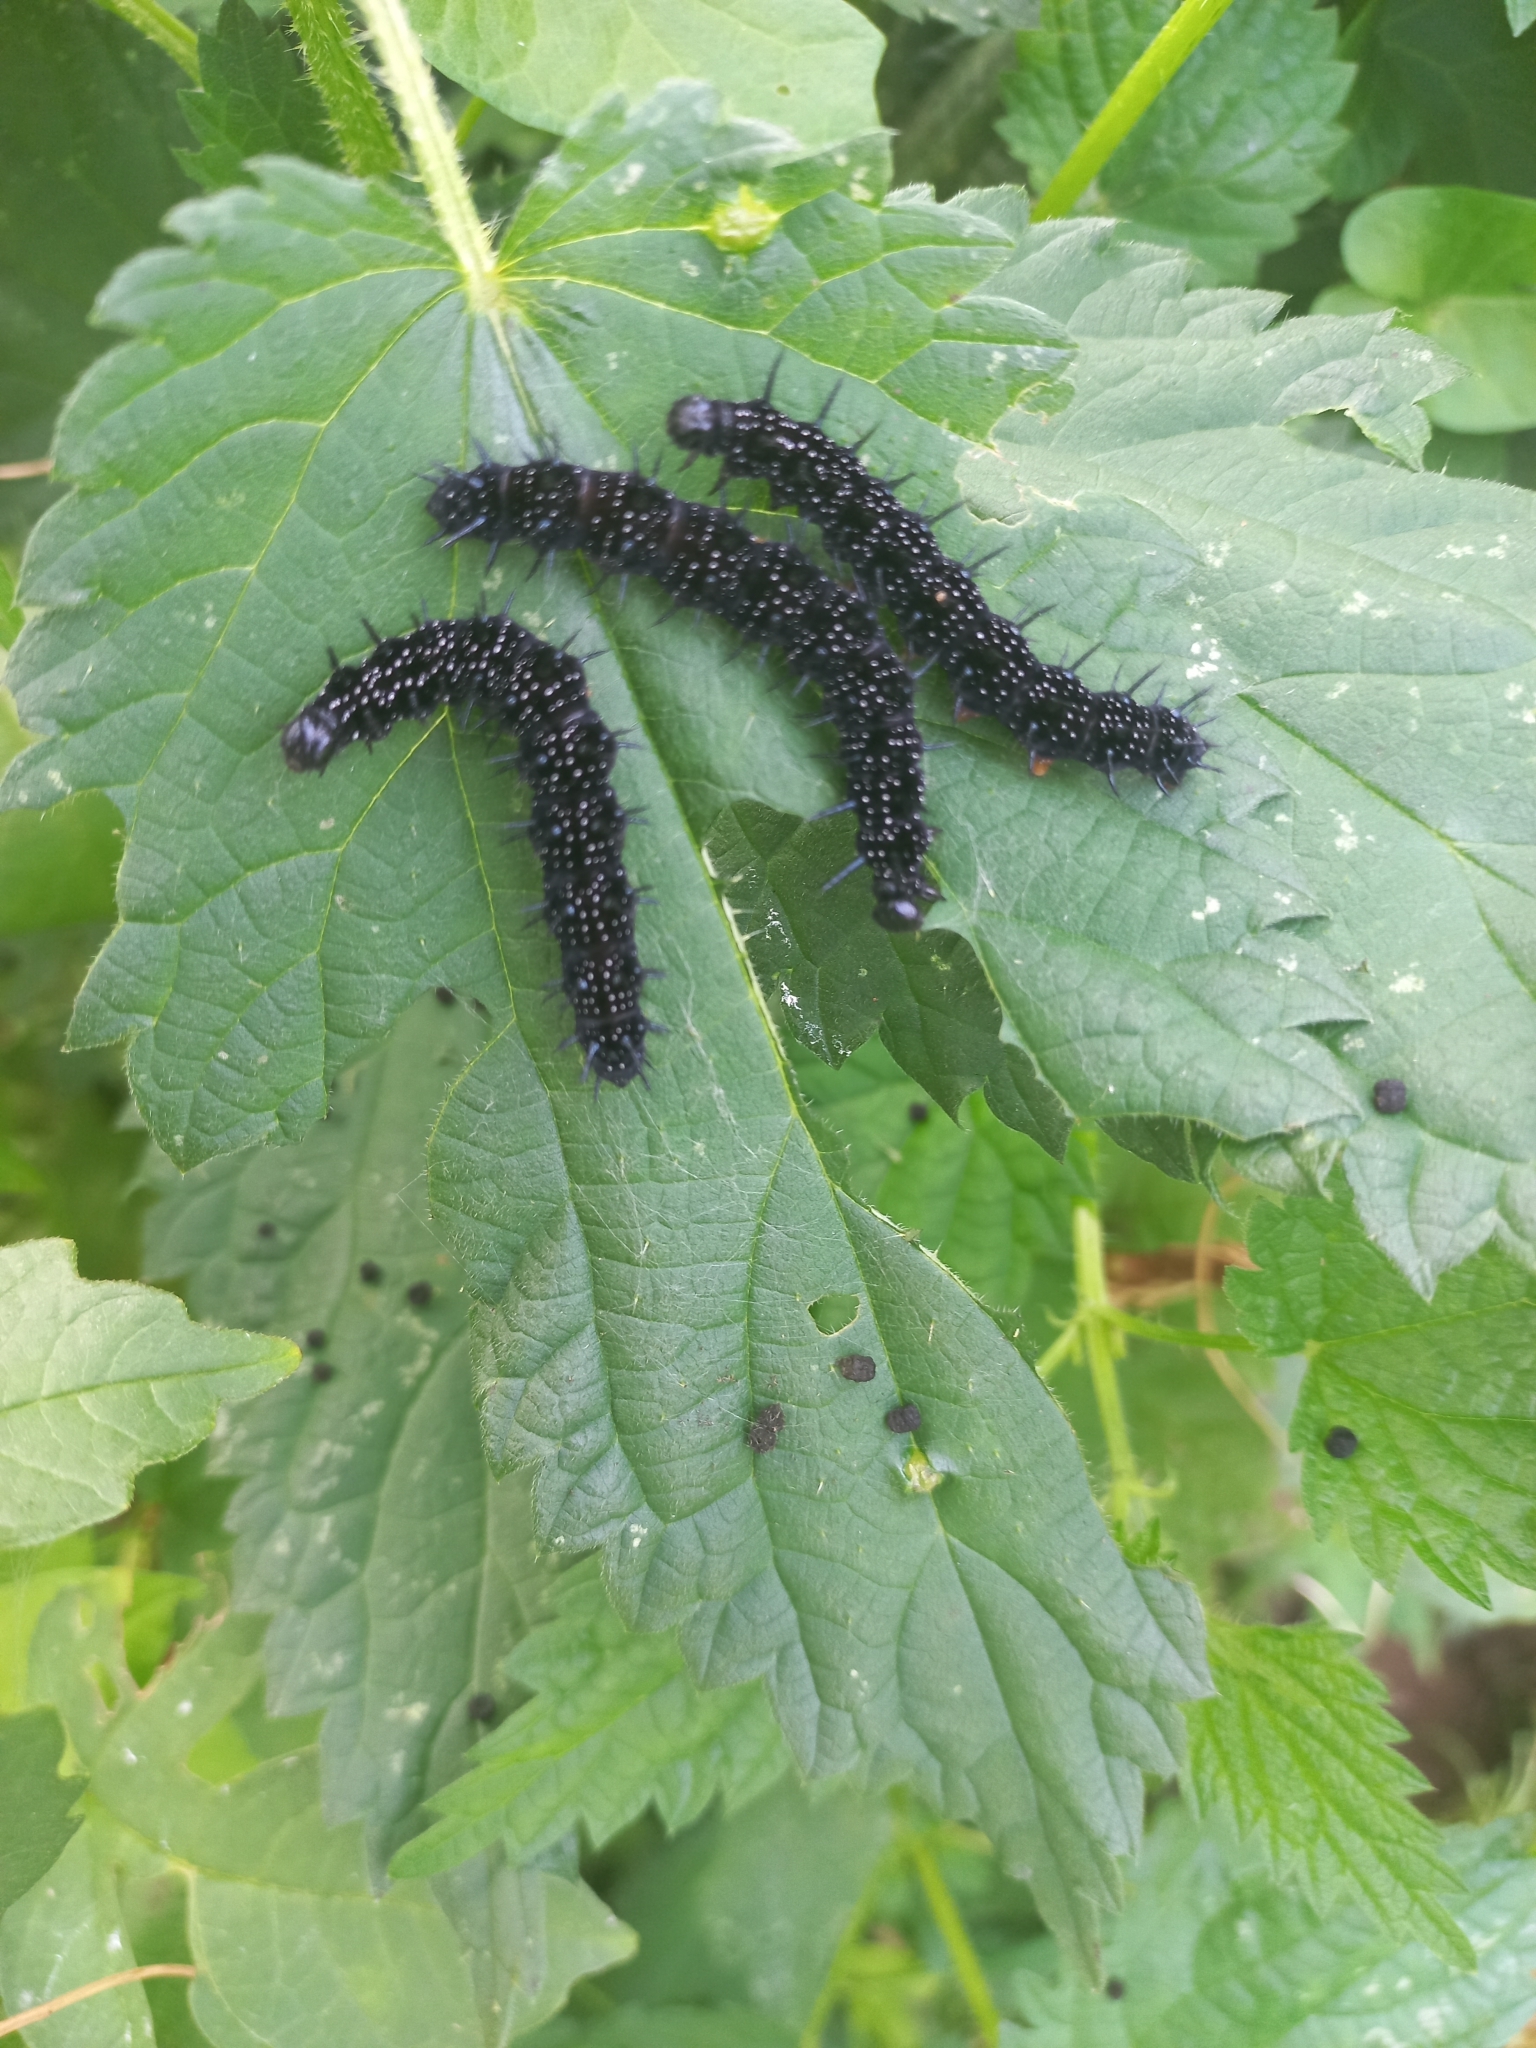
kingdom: Animalia
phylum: Arthropoda
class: Insecta
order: Lepidoptera
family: Nymphalidae
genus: Aglais
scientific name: Aglais io
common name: Peacock
